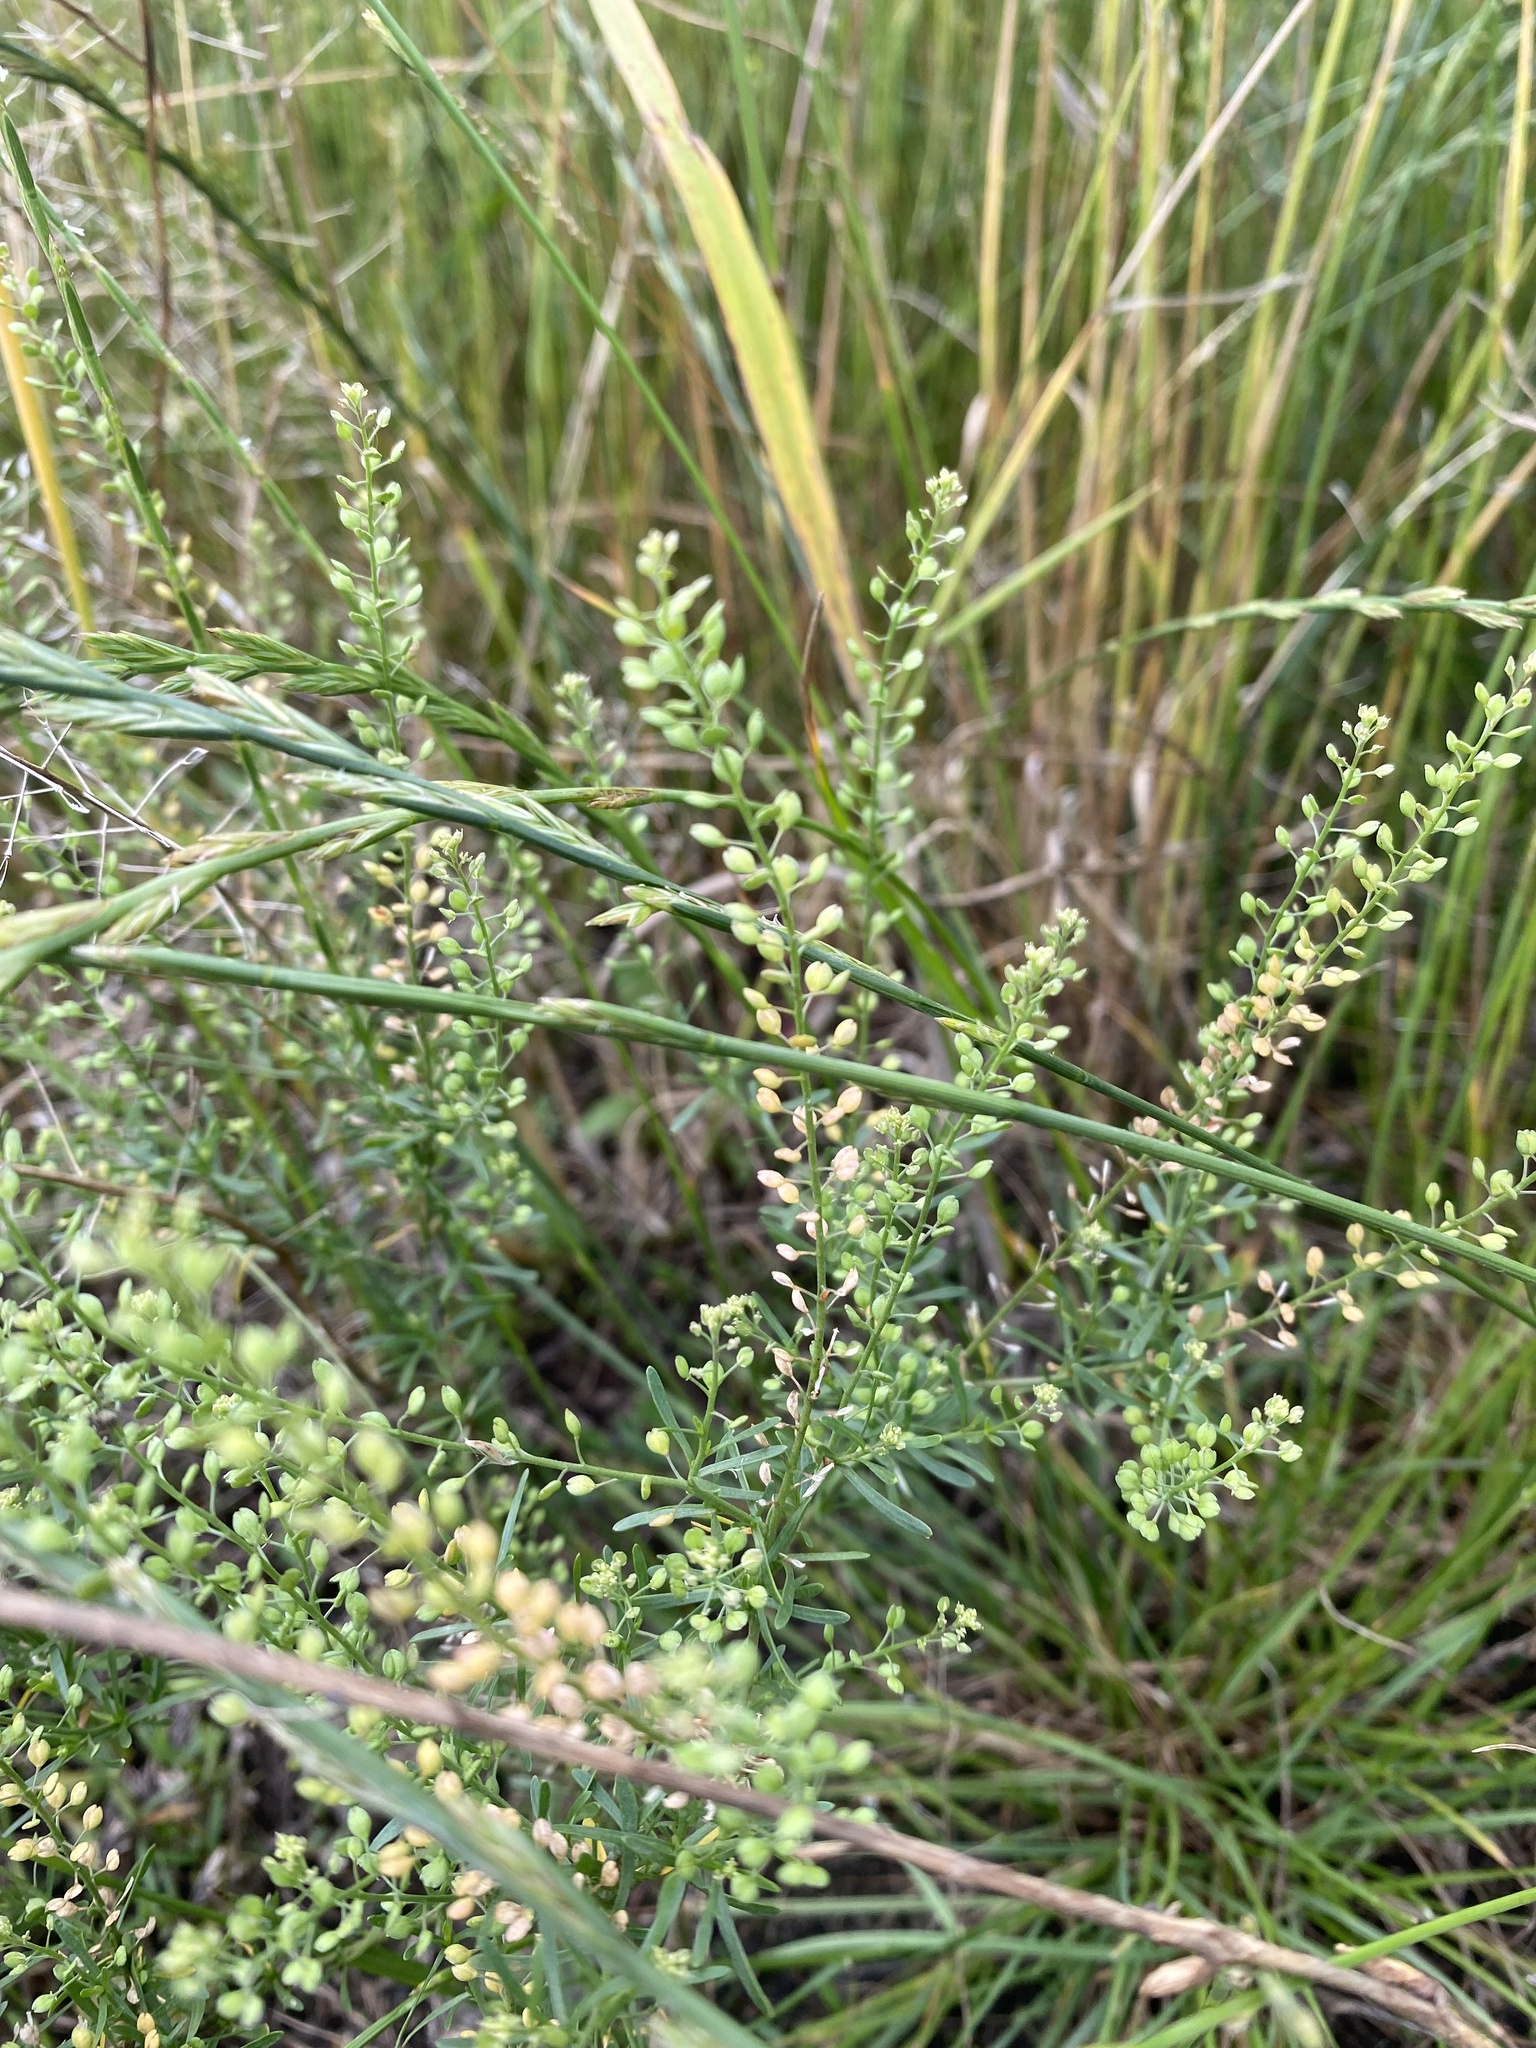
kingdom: Plantae
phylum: Tracheophyta
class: Magnoliopsida
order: Brassicales
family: Brassicaceae
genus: Lepidium
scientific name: Lepidium ruderale
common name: Narrow-leaved pepperwort
